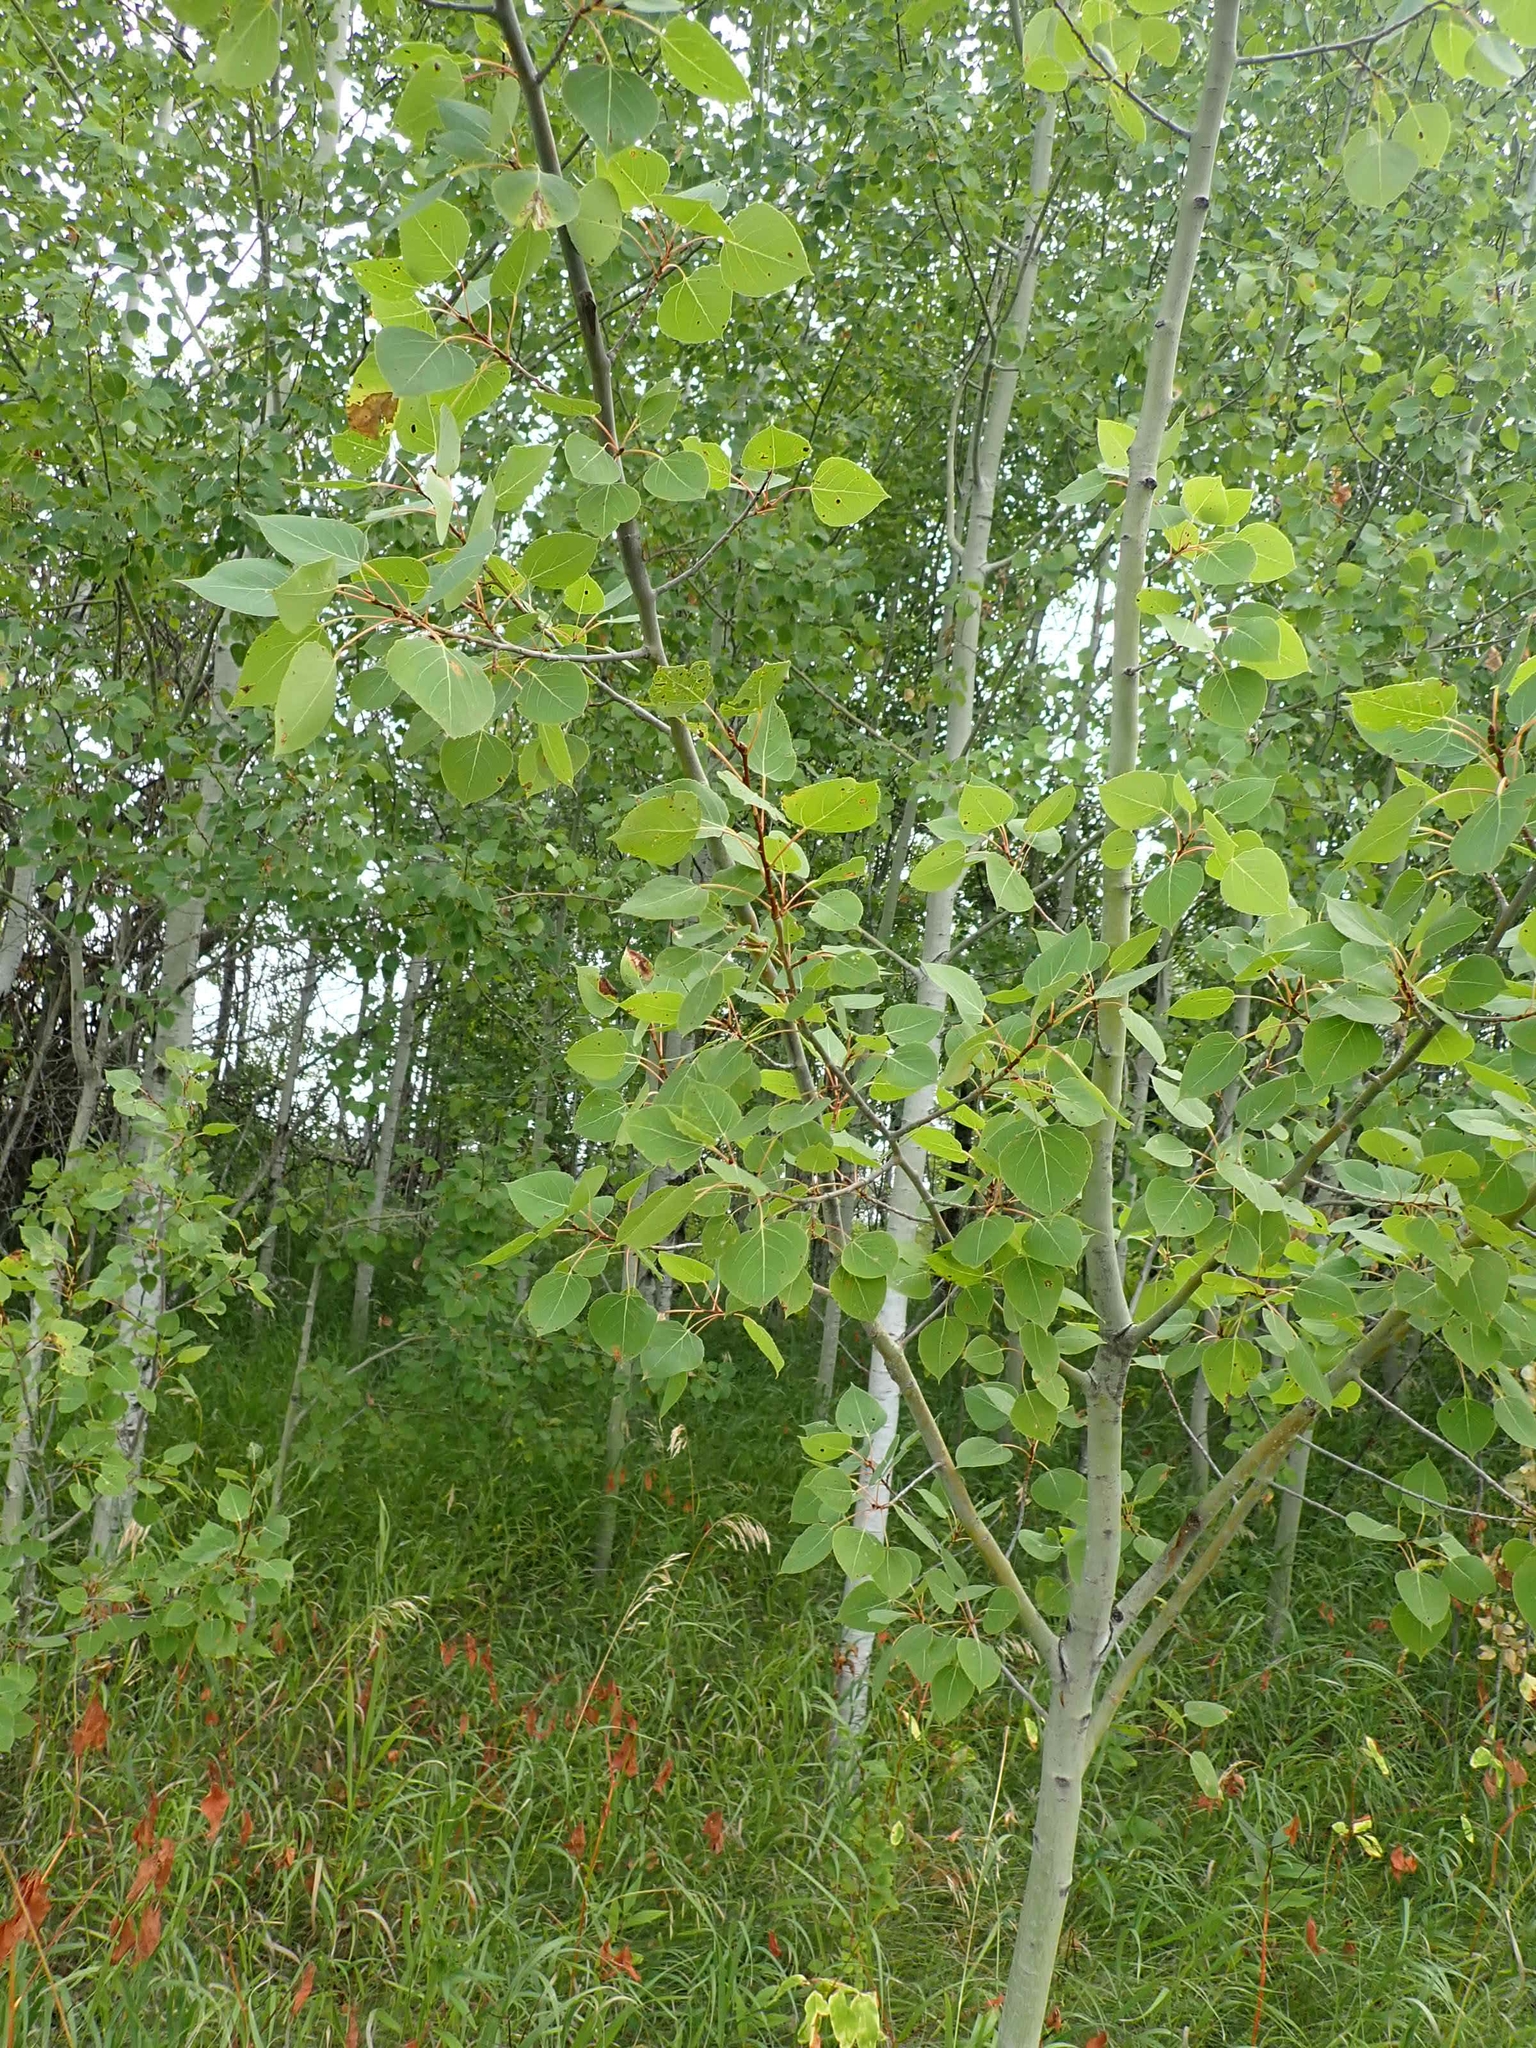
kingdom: Plantae
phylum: Tracheophyta
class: Magnoliopsida
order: Malpighiales
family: Salicaceae
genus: Populus
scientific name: Populus tremuloides
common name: Quaking aspen
